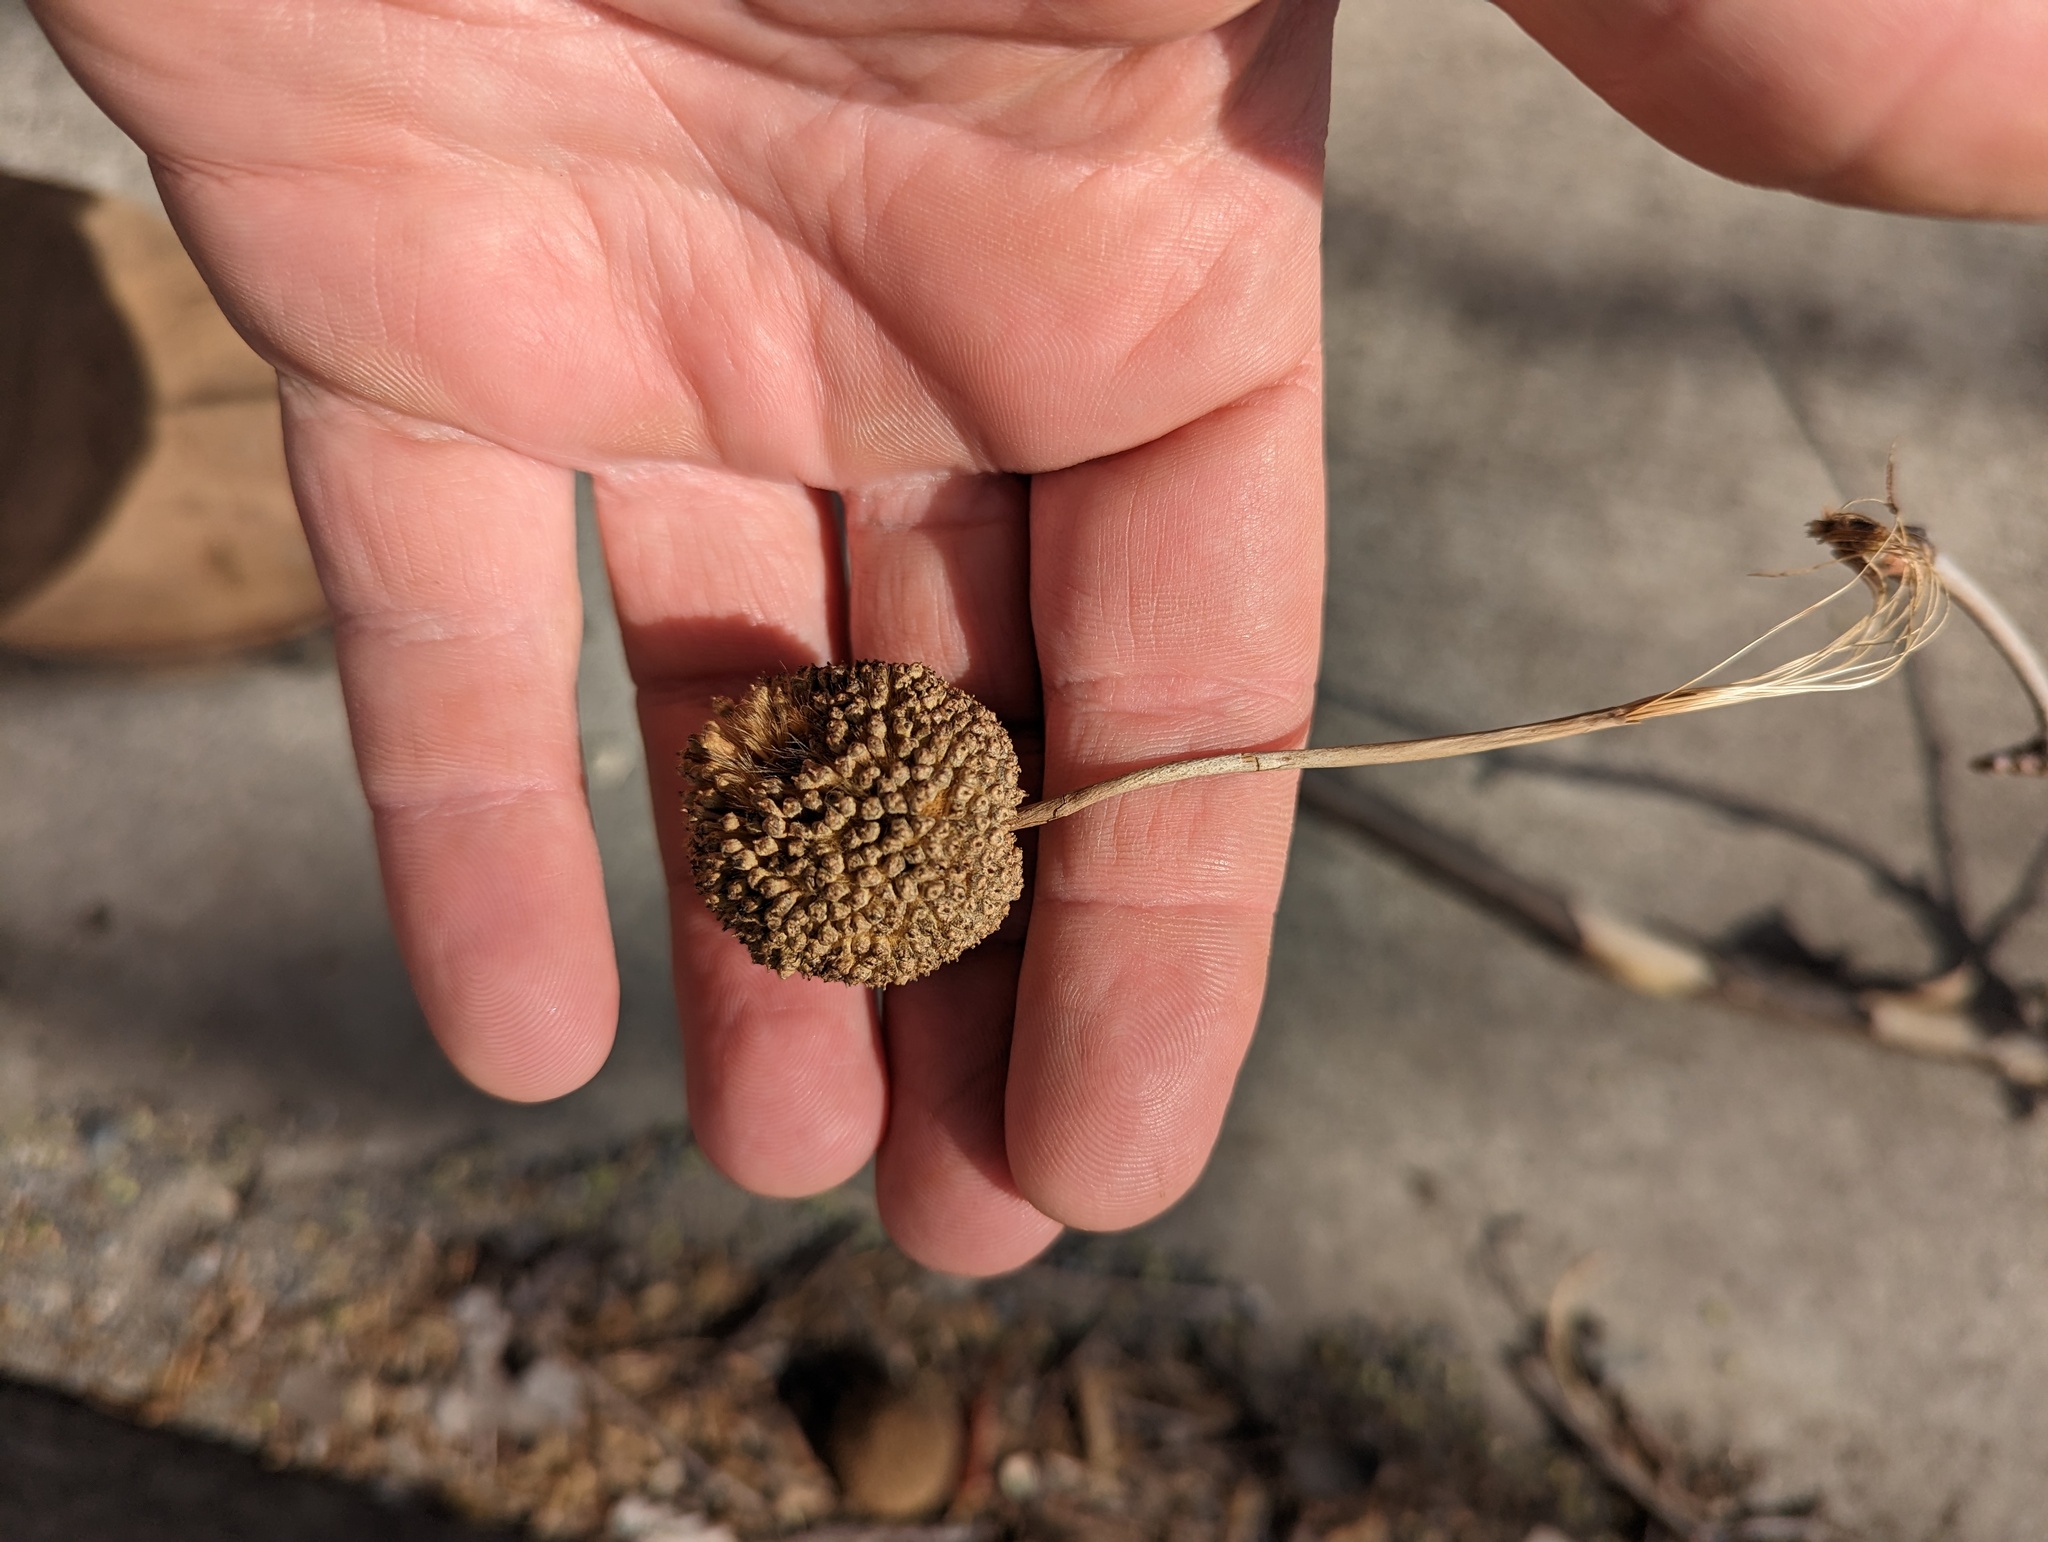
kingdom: Plantae
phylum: Tracheophyta
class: Magnoliopsida
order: Proteales
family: Platanaceae
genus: Platanus
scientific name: Platanus occidentalis
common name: American sycamore
